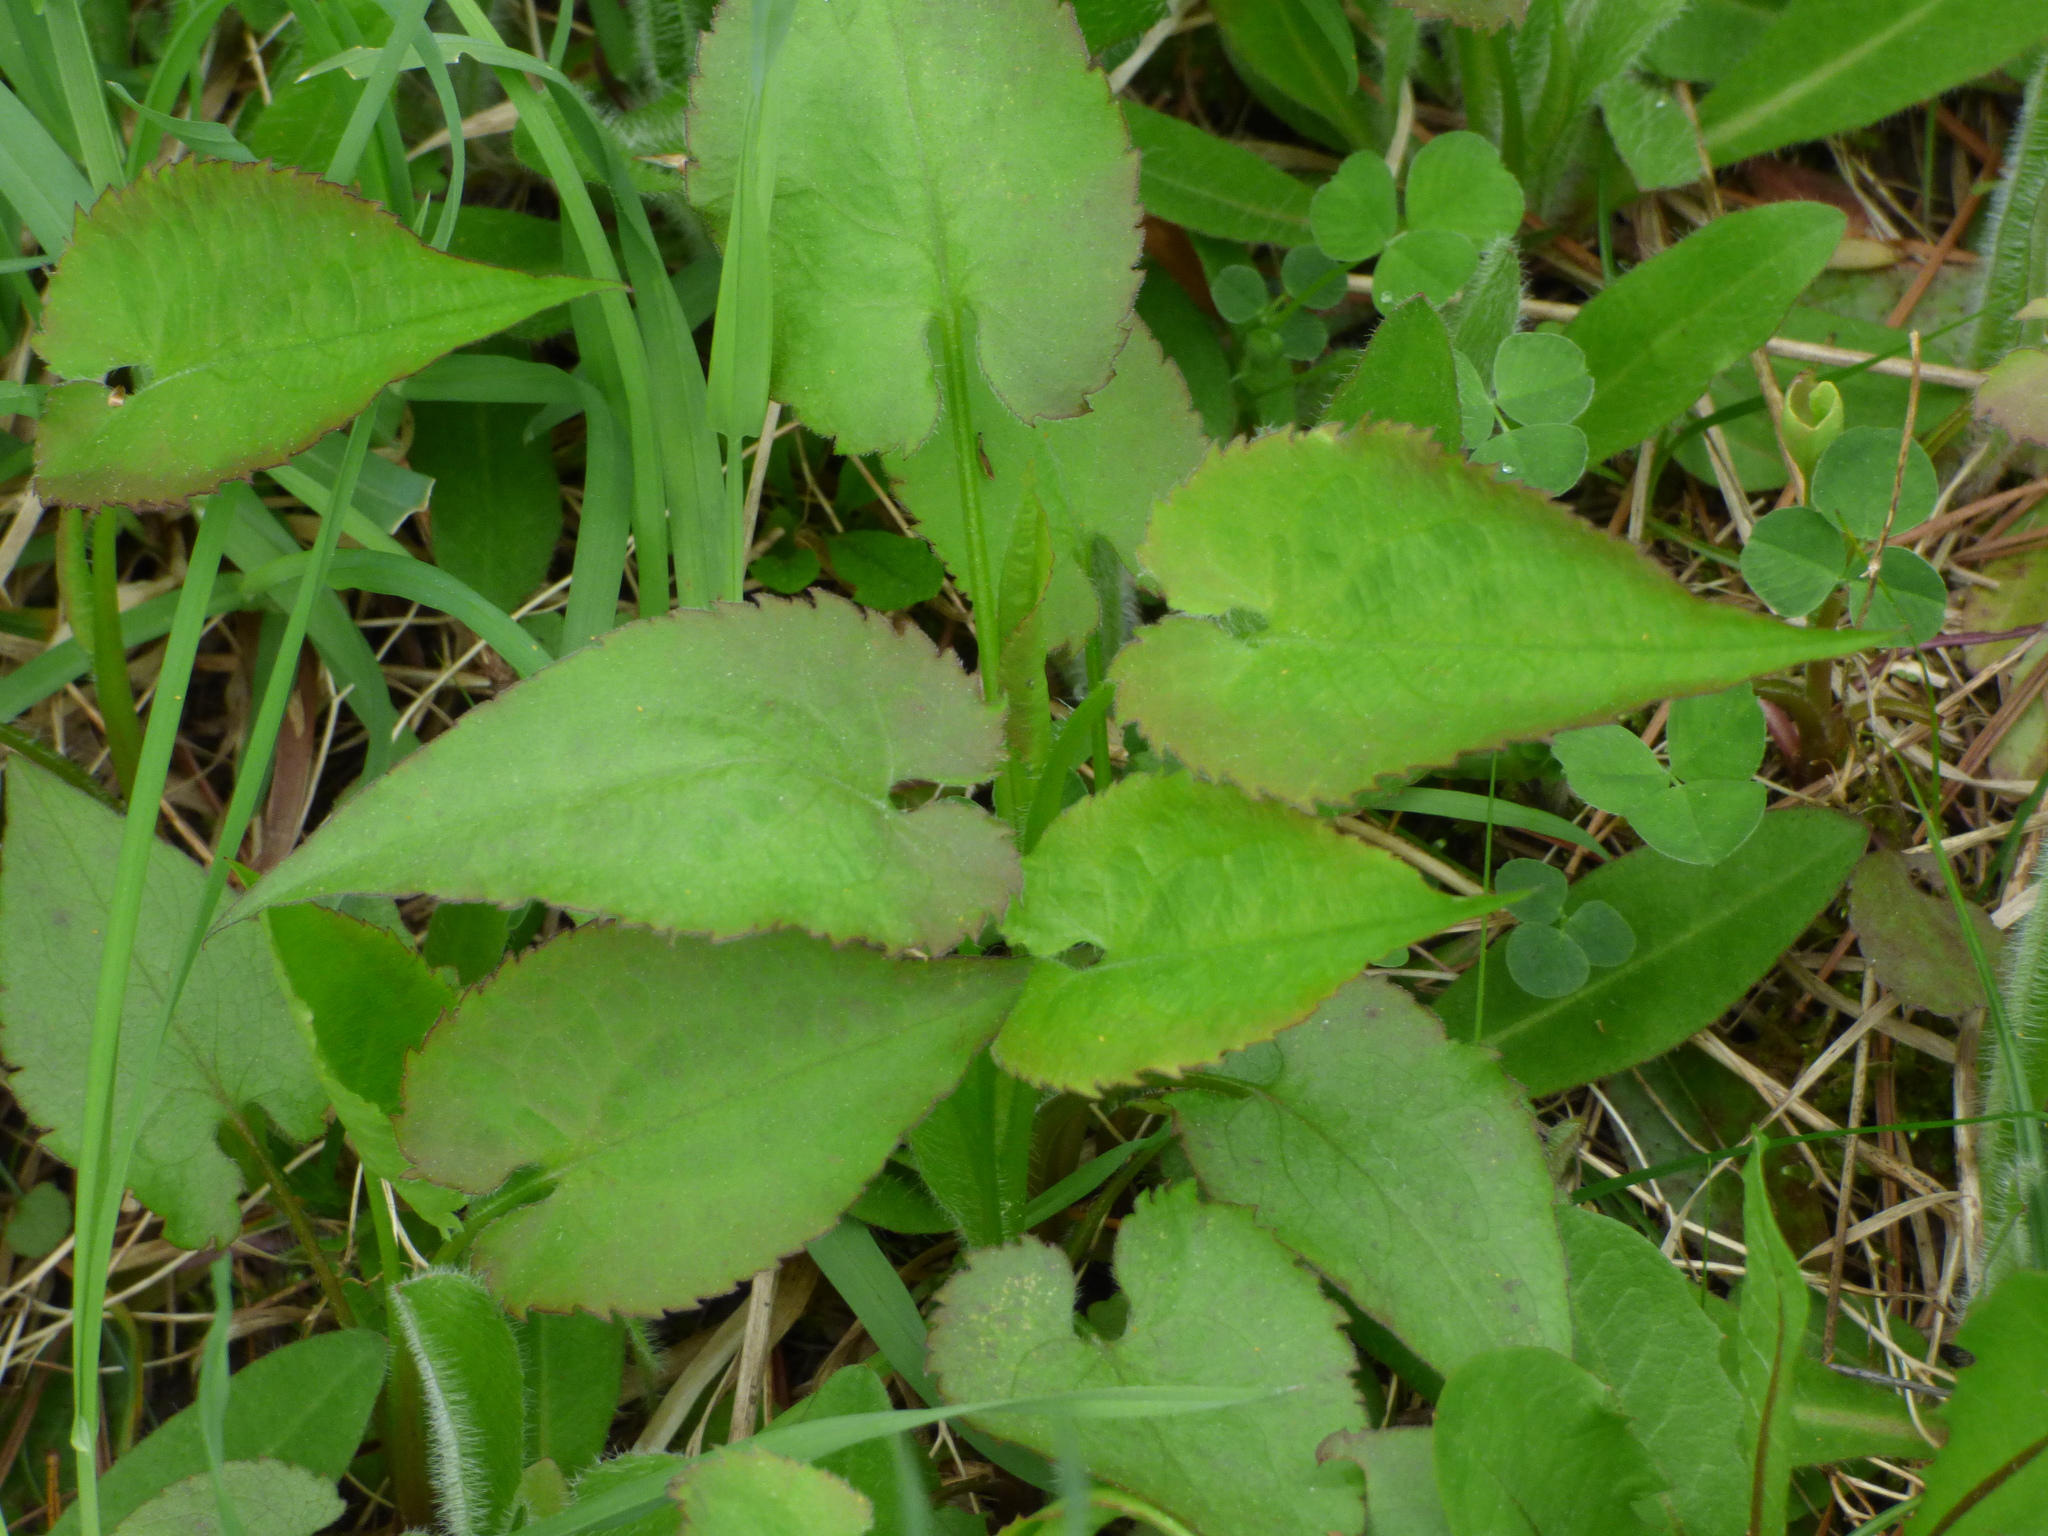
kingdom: Plantae
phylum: Tracheophyta
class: Magnoliopsida
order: Asterales
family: Asteraceae
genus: Symphyotrichum
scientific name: Symphyotrichum cordifolium
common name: Beeweed
